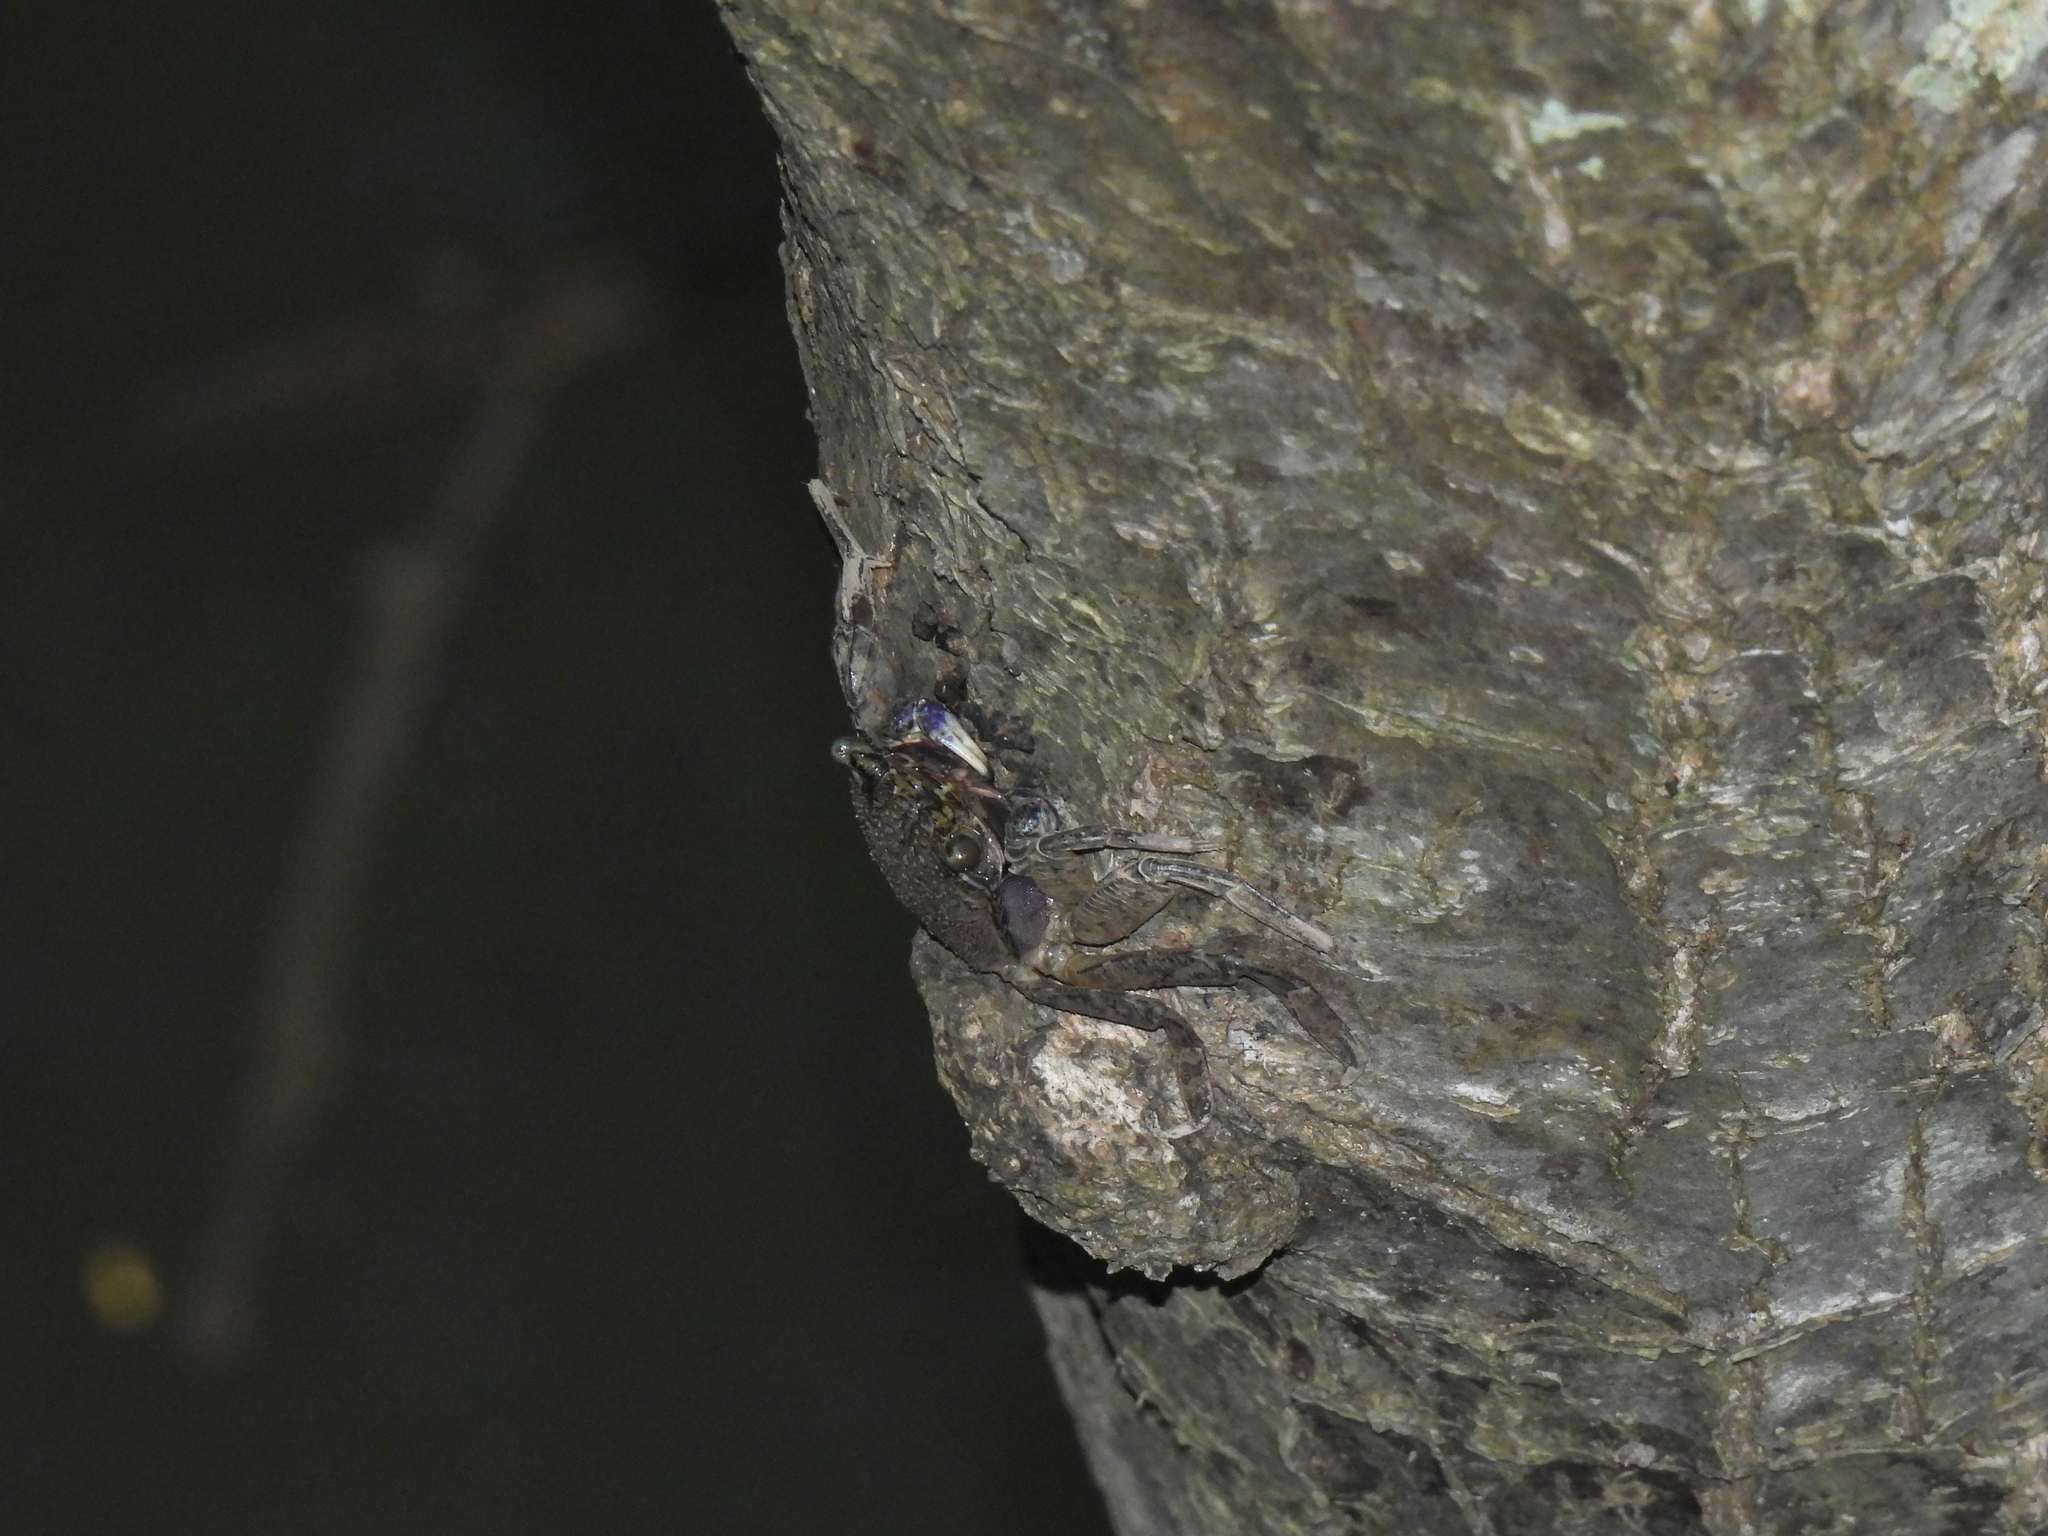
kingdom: Animalia
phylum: Arthropoda
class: Malacostraca
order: Decapoda
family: Sesarmidae
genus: Episesarma
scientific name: Episesarma versicolor
